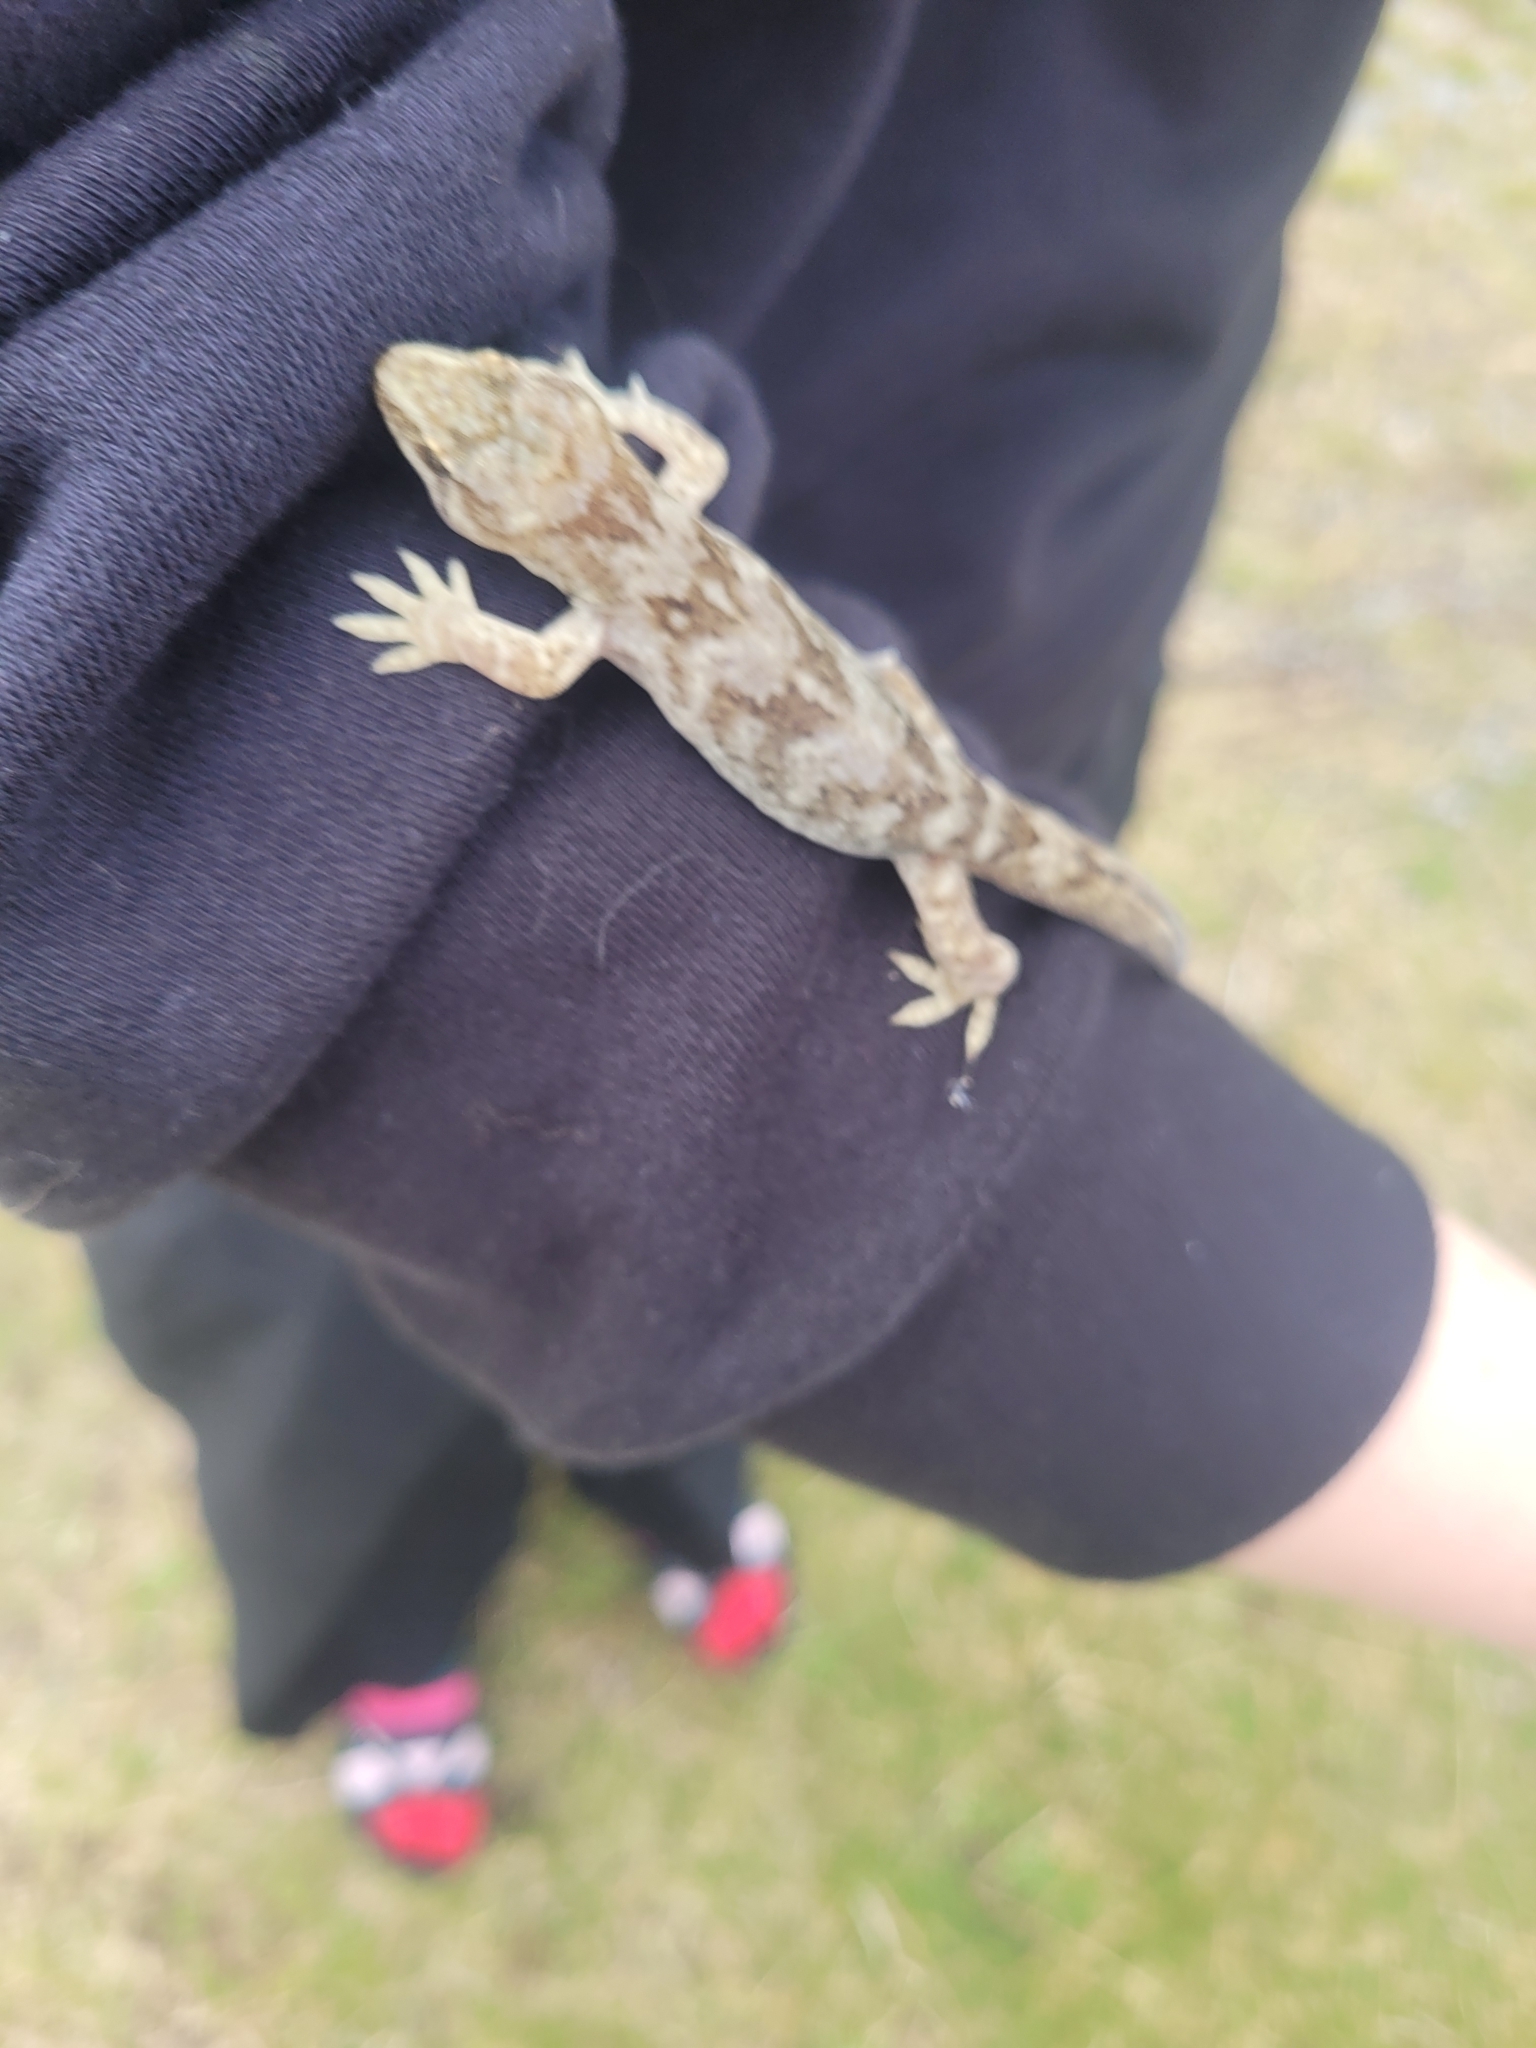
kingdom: Animalia
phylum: Chordata
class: Squamata
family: Diplodactylidae
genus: Woodworthia
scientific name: Woodworthia
